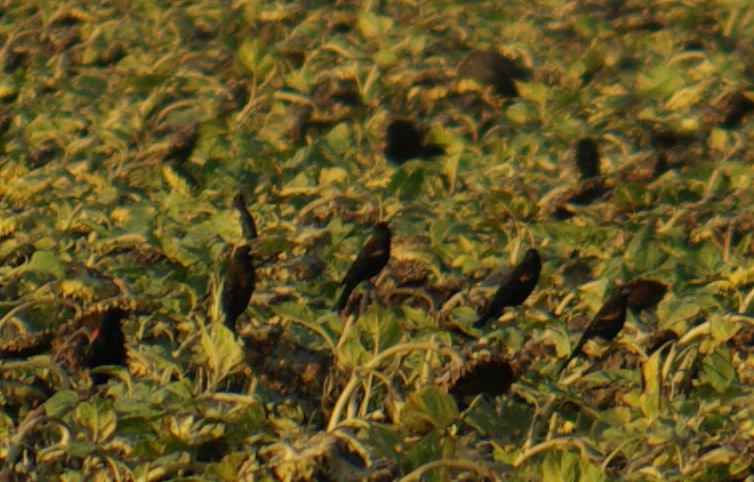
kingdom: Animalia
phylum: Chordata
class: Aves
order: Passeriformes
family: Icteridae
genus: Agelaius
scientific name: Agelaius phoeniceus
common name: Red-winged blackbird
